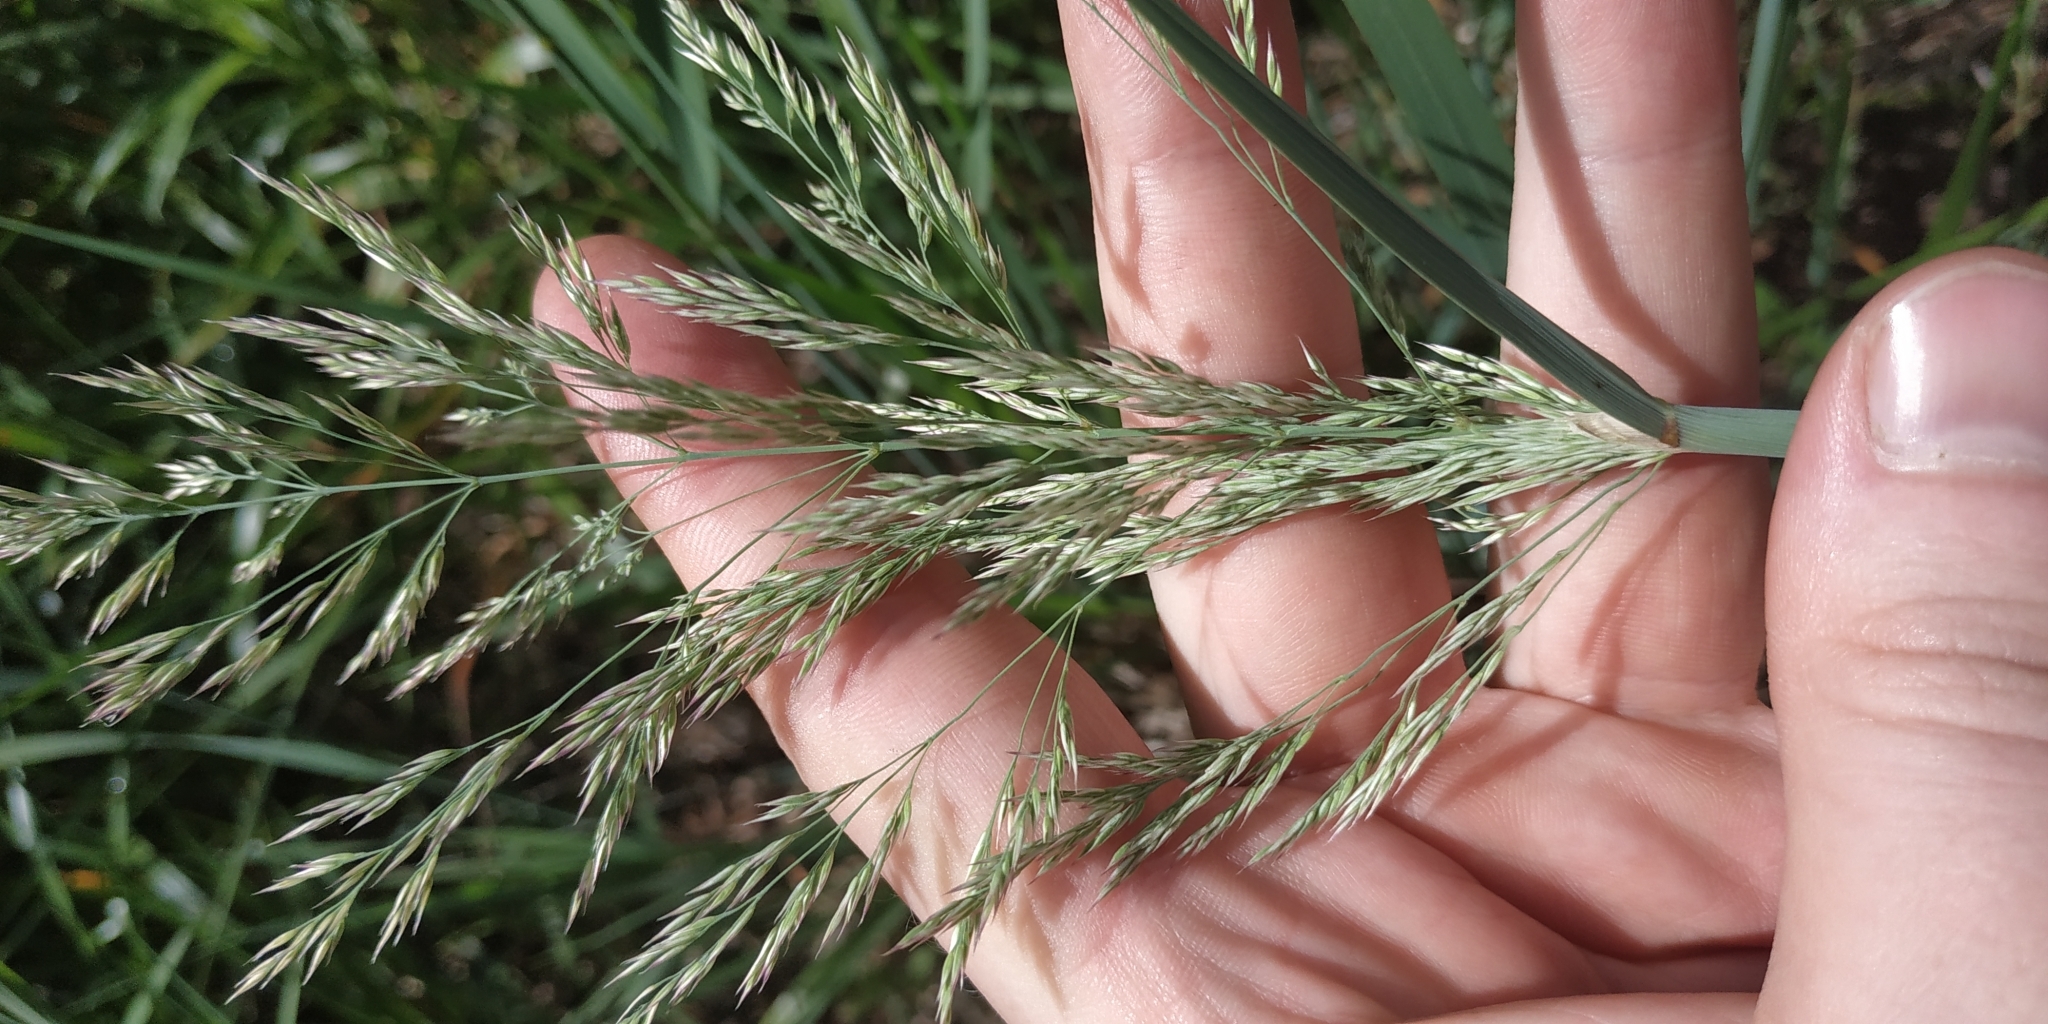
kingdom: Plantae
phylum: Tracheophyta
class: Liliopsida
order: Poales
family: Poaceae
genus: Calamagrostis
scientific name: Calamagrostis epigejos
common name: Wood small-reed
